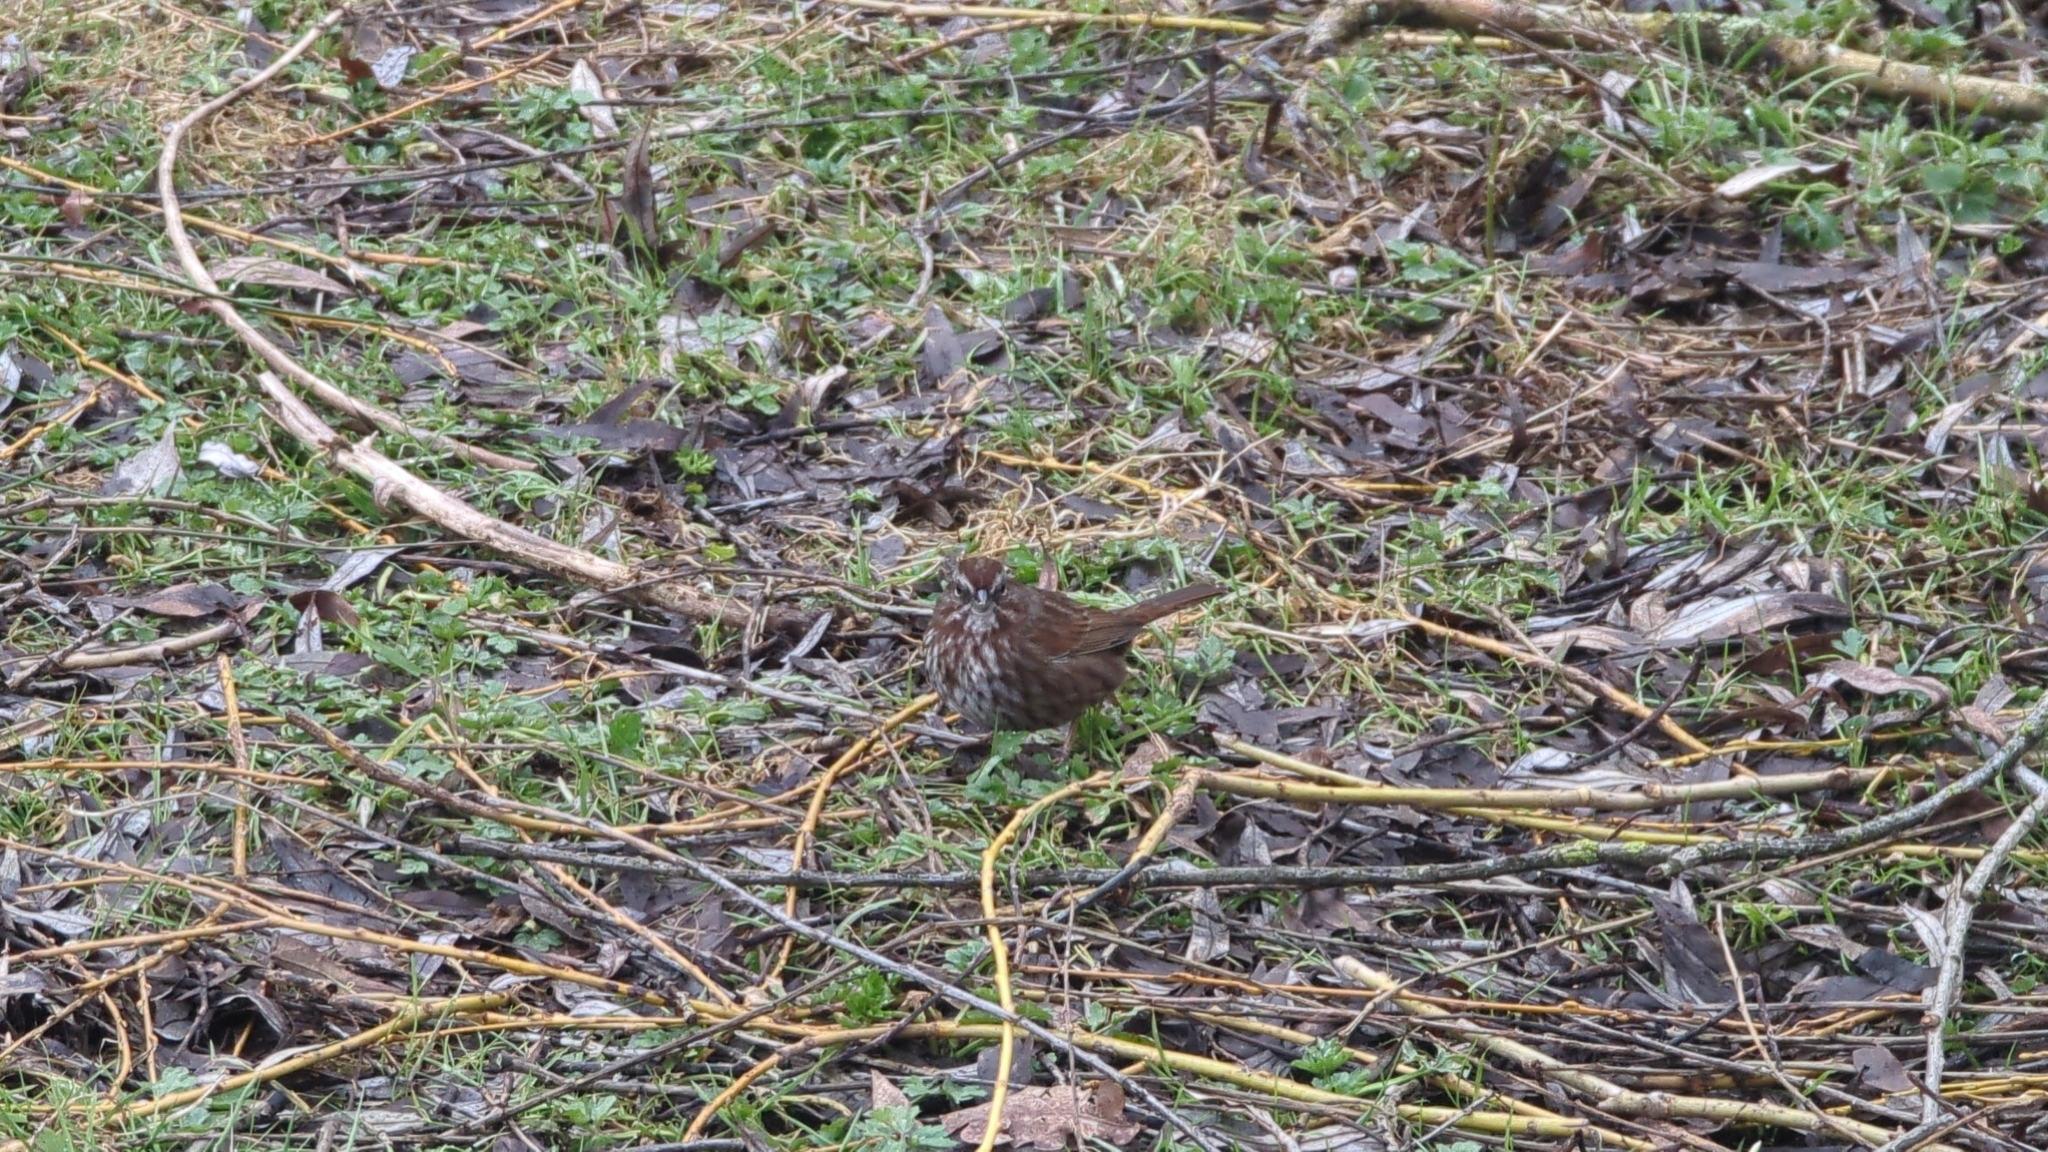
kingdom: Animalia
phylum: Chordata
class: Aves
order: Passeriformes
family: Passerellidae
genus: Melospiza
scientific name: Melospiza melodia
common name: Song sparrow
